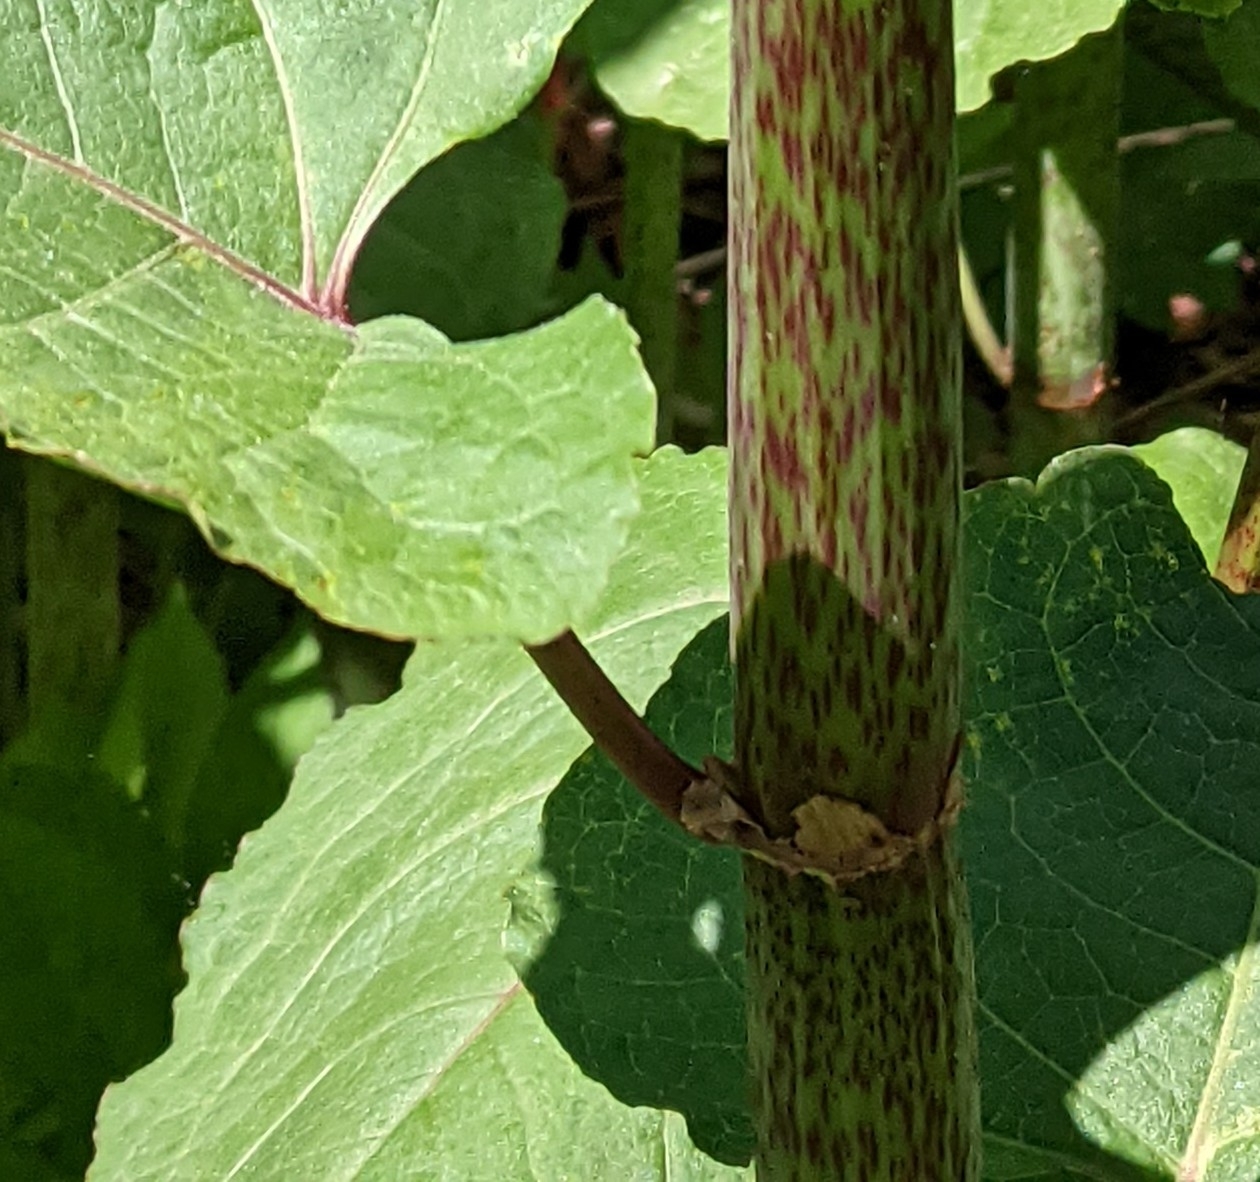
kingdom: Plantae
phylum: Tracheophyta
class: Magnoliopsida
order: Caryophyllales
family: Polygonaceae
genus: Reynoutria
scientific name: Reynoutria bohemica
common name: Bohemian knotweed
